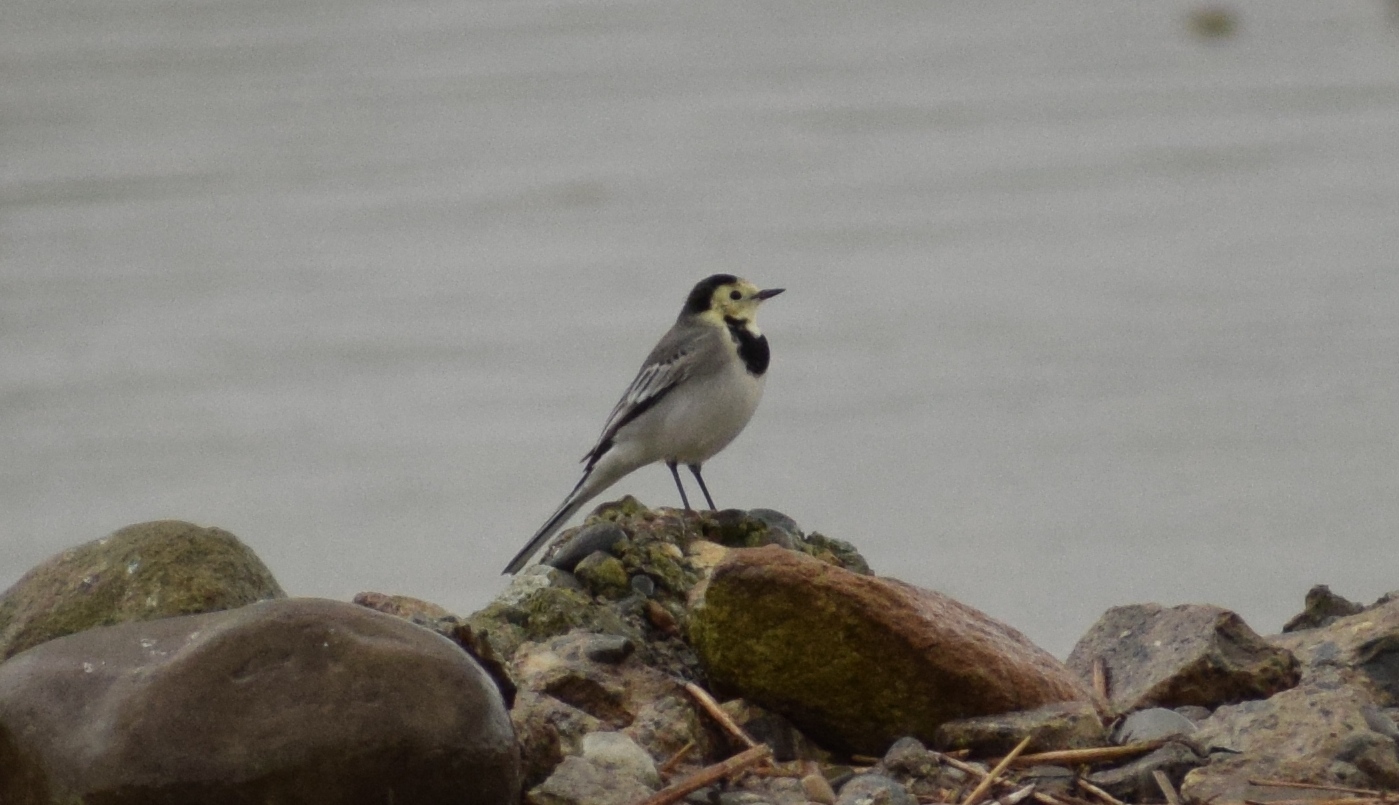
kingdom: Animalia
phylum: Chordata
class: Aves
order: Passeriformes
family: Motacillidae
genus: Motacilla
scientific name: Motacilla alba
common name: White wagtail
